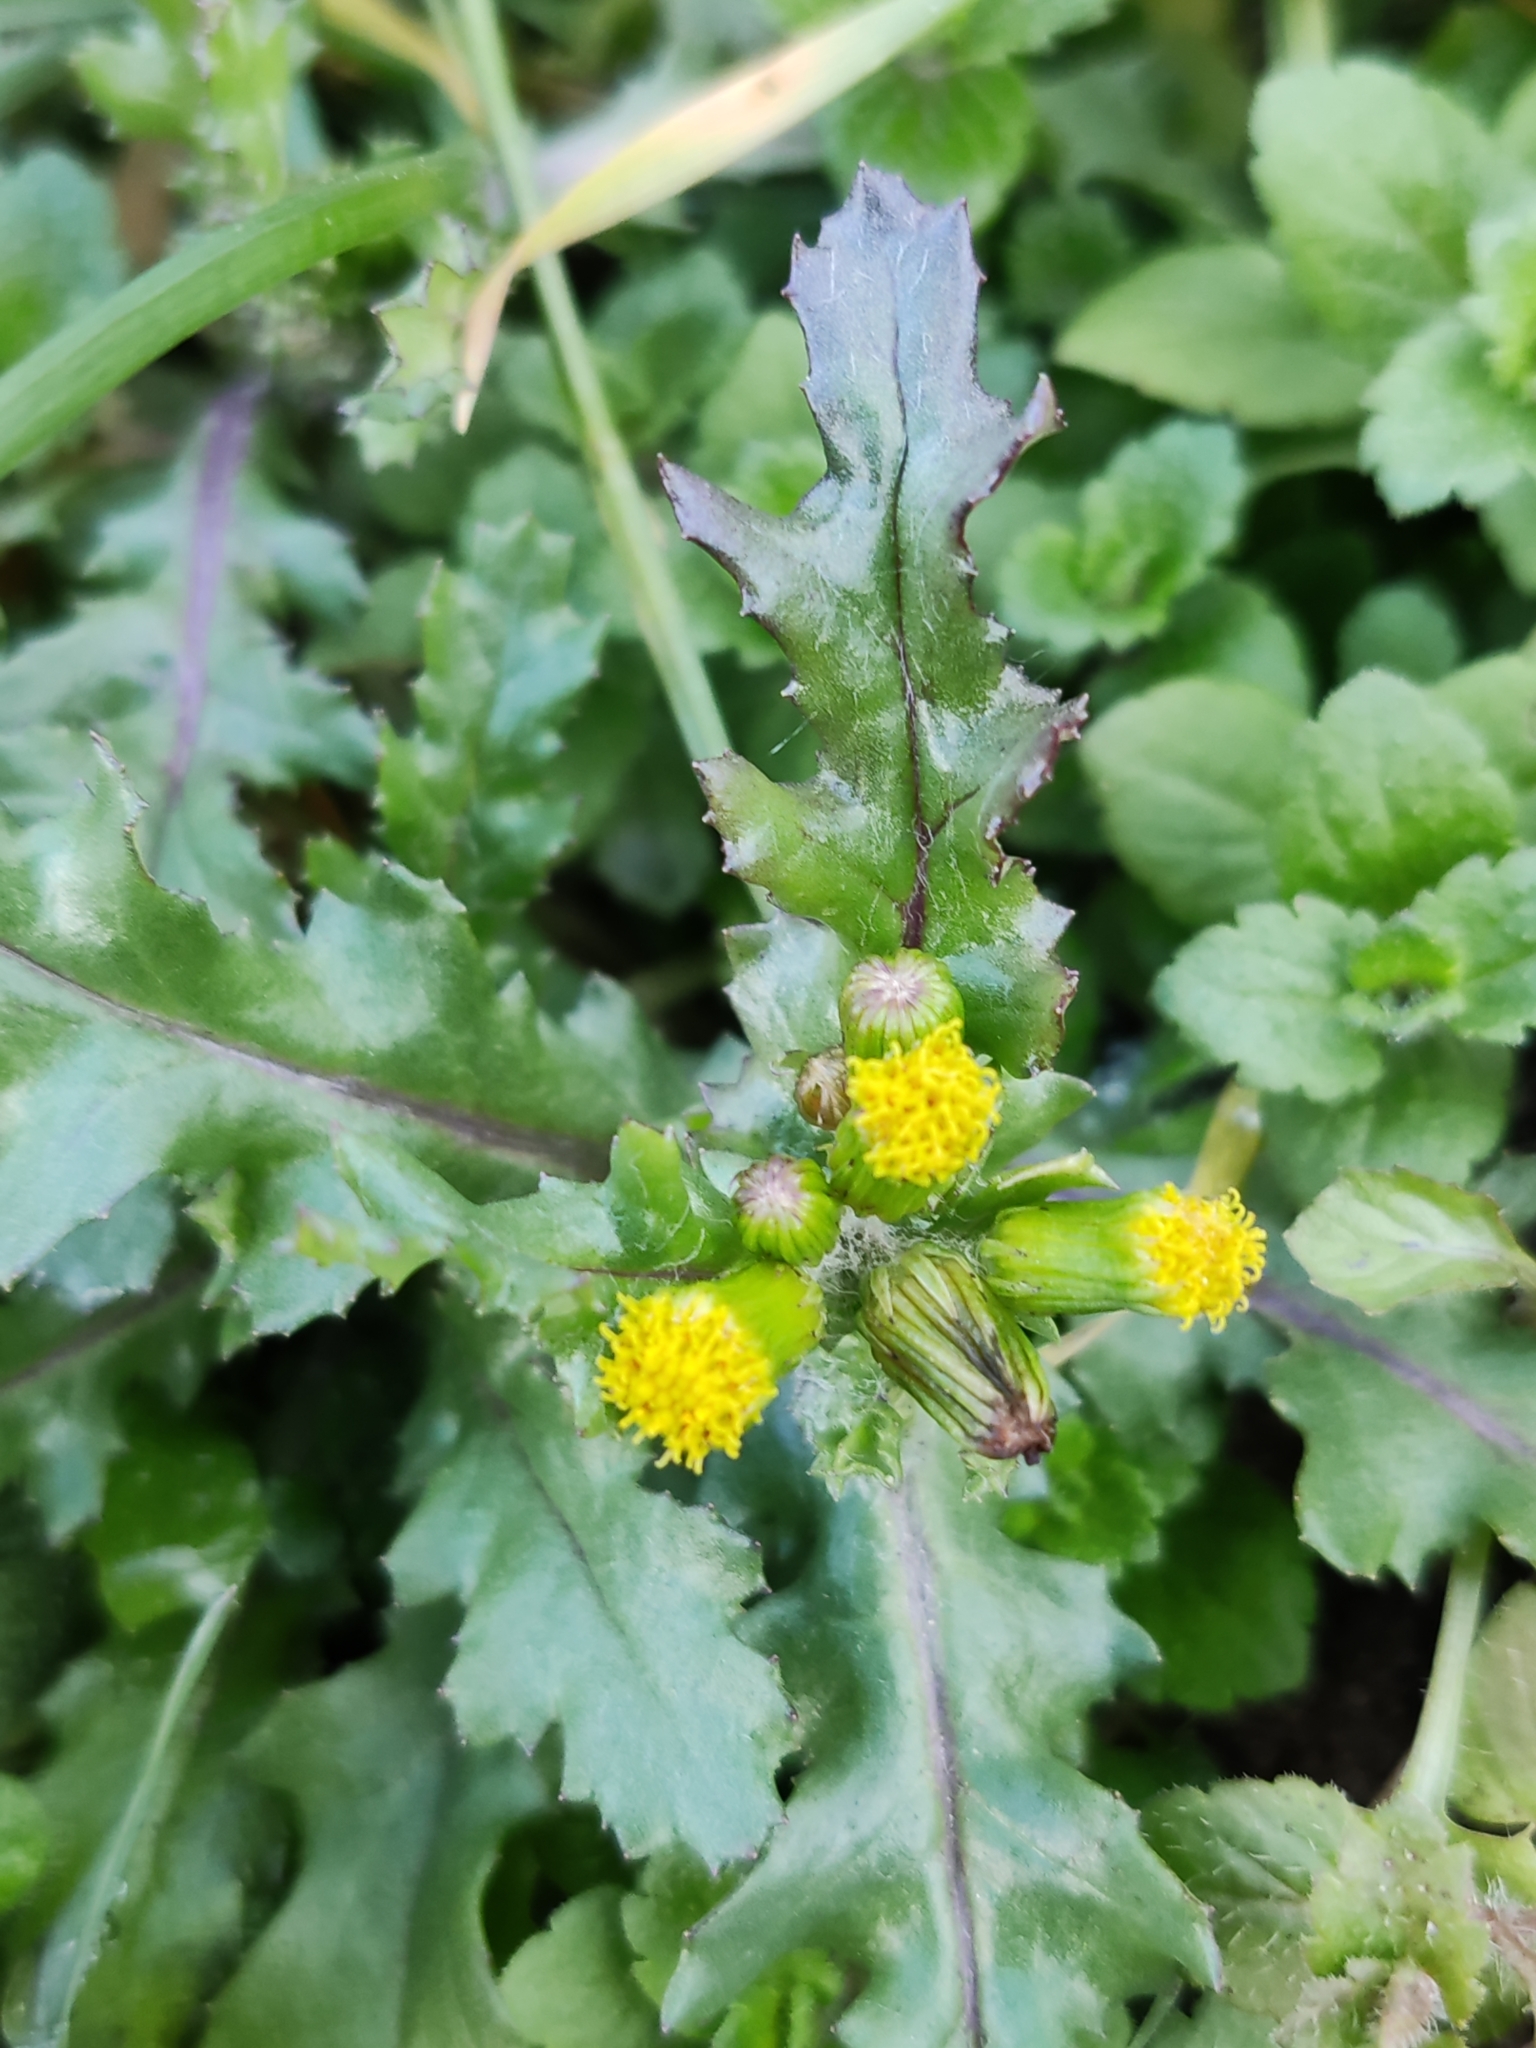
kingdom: Plantae
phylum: Tracheophyta
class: Magnoliopsida
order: Asterales
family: Asteraceae
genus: Senecio
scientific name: Senecio vulgaris
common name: Old-man-in-the-spring
